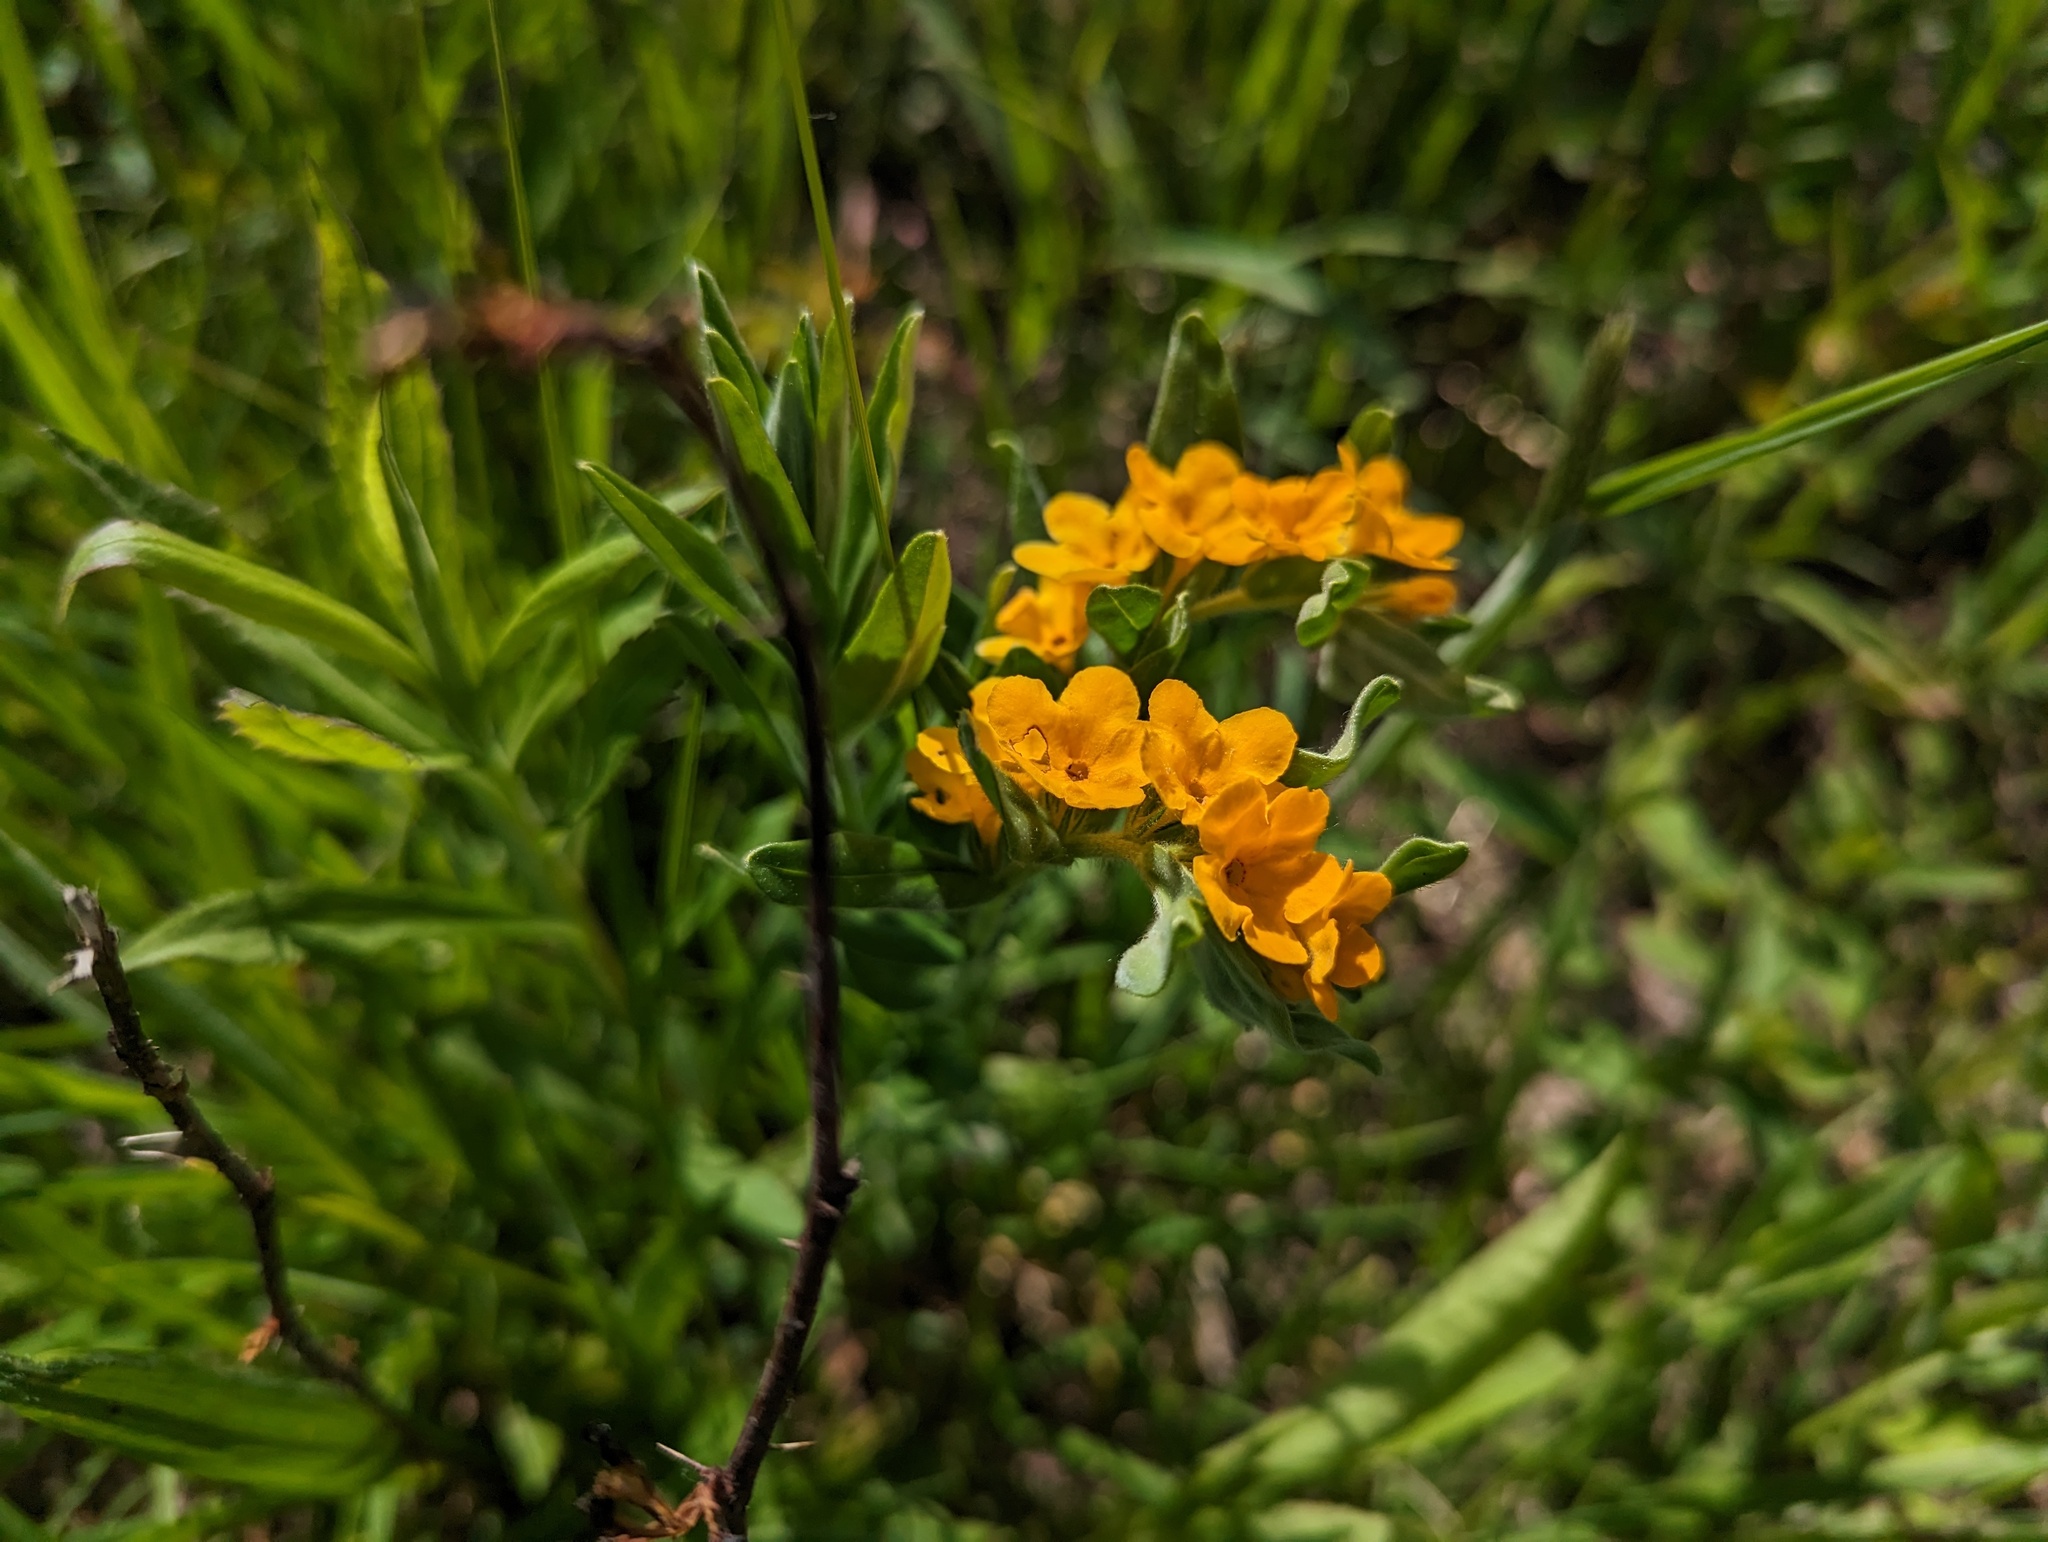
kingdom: Plantae
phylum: Tracheophyta
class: Magnoliopsida
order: Boraginales
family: Boraginaceae
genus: Lithospermum
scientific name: Lithospermum canescens
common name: Hoary puccoon
